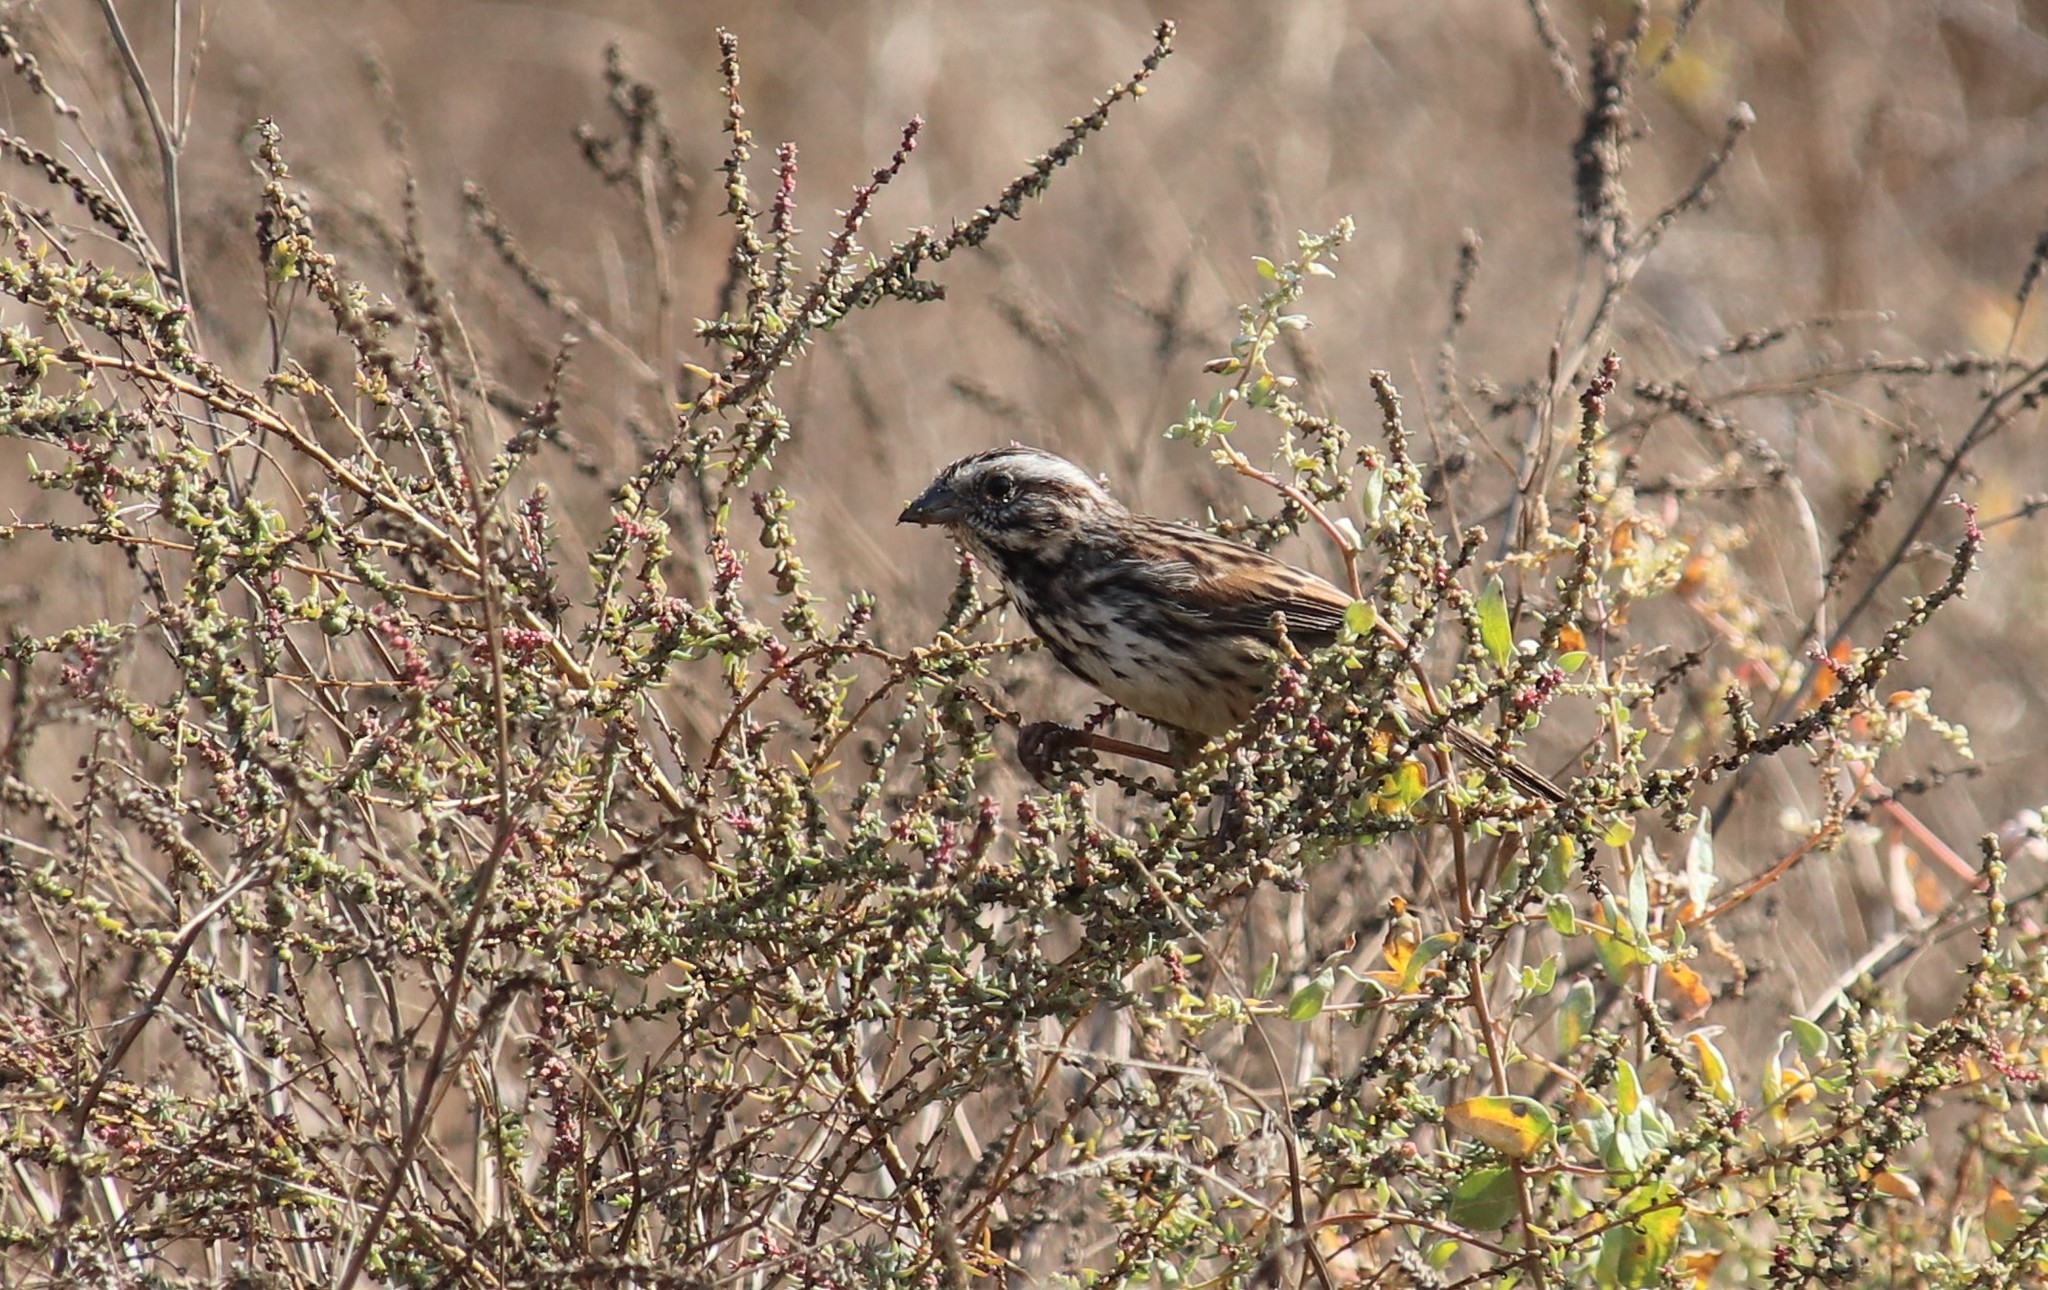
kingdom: Animalia
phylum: Chordata
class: Aves
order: Passeriformes
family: Passerellidae
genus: Melospiza
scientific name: Melospiza melodia
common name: Song sparrow
